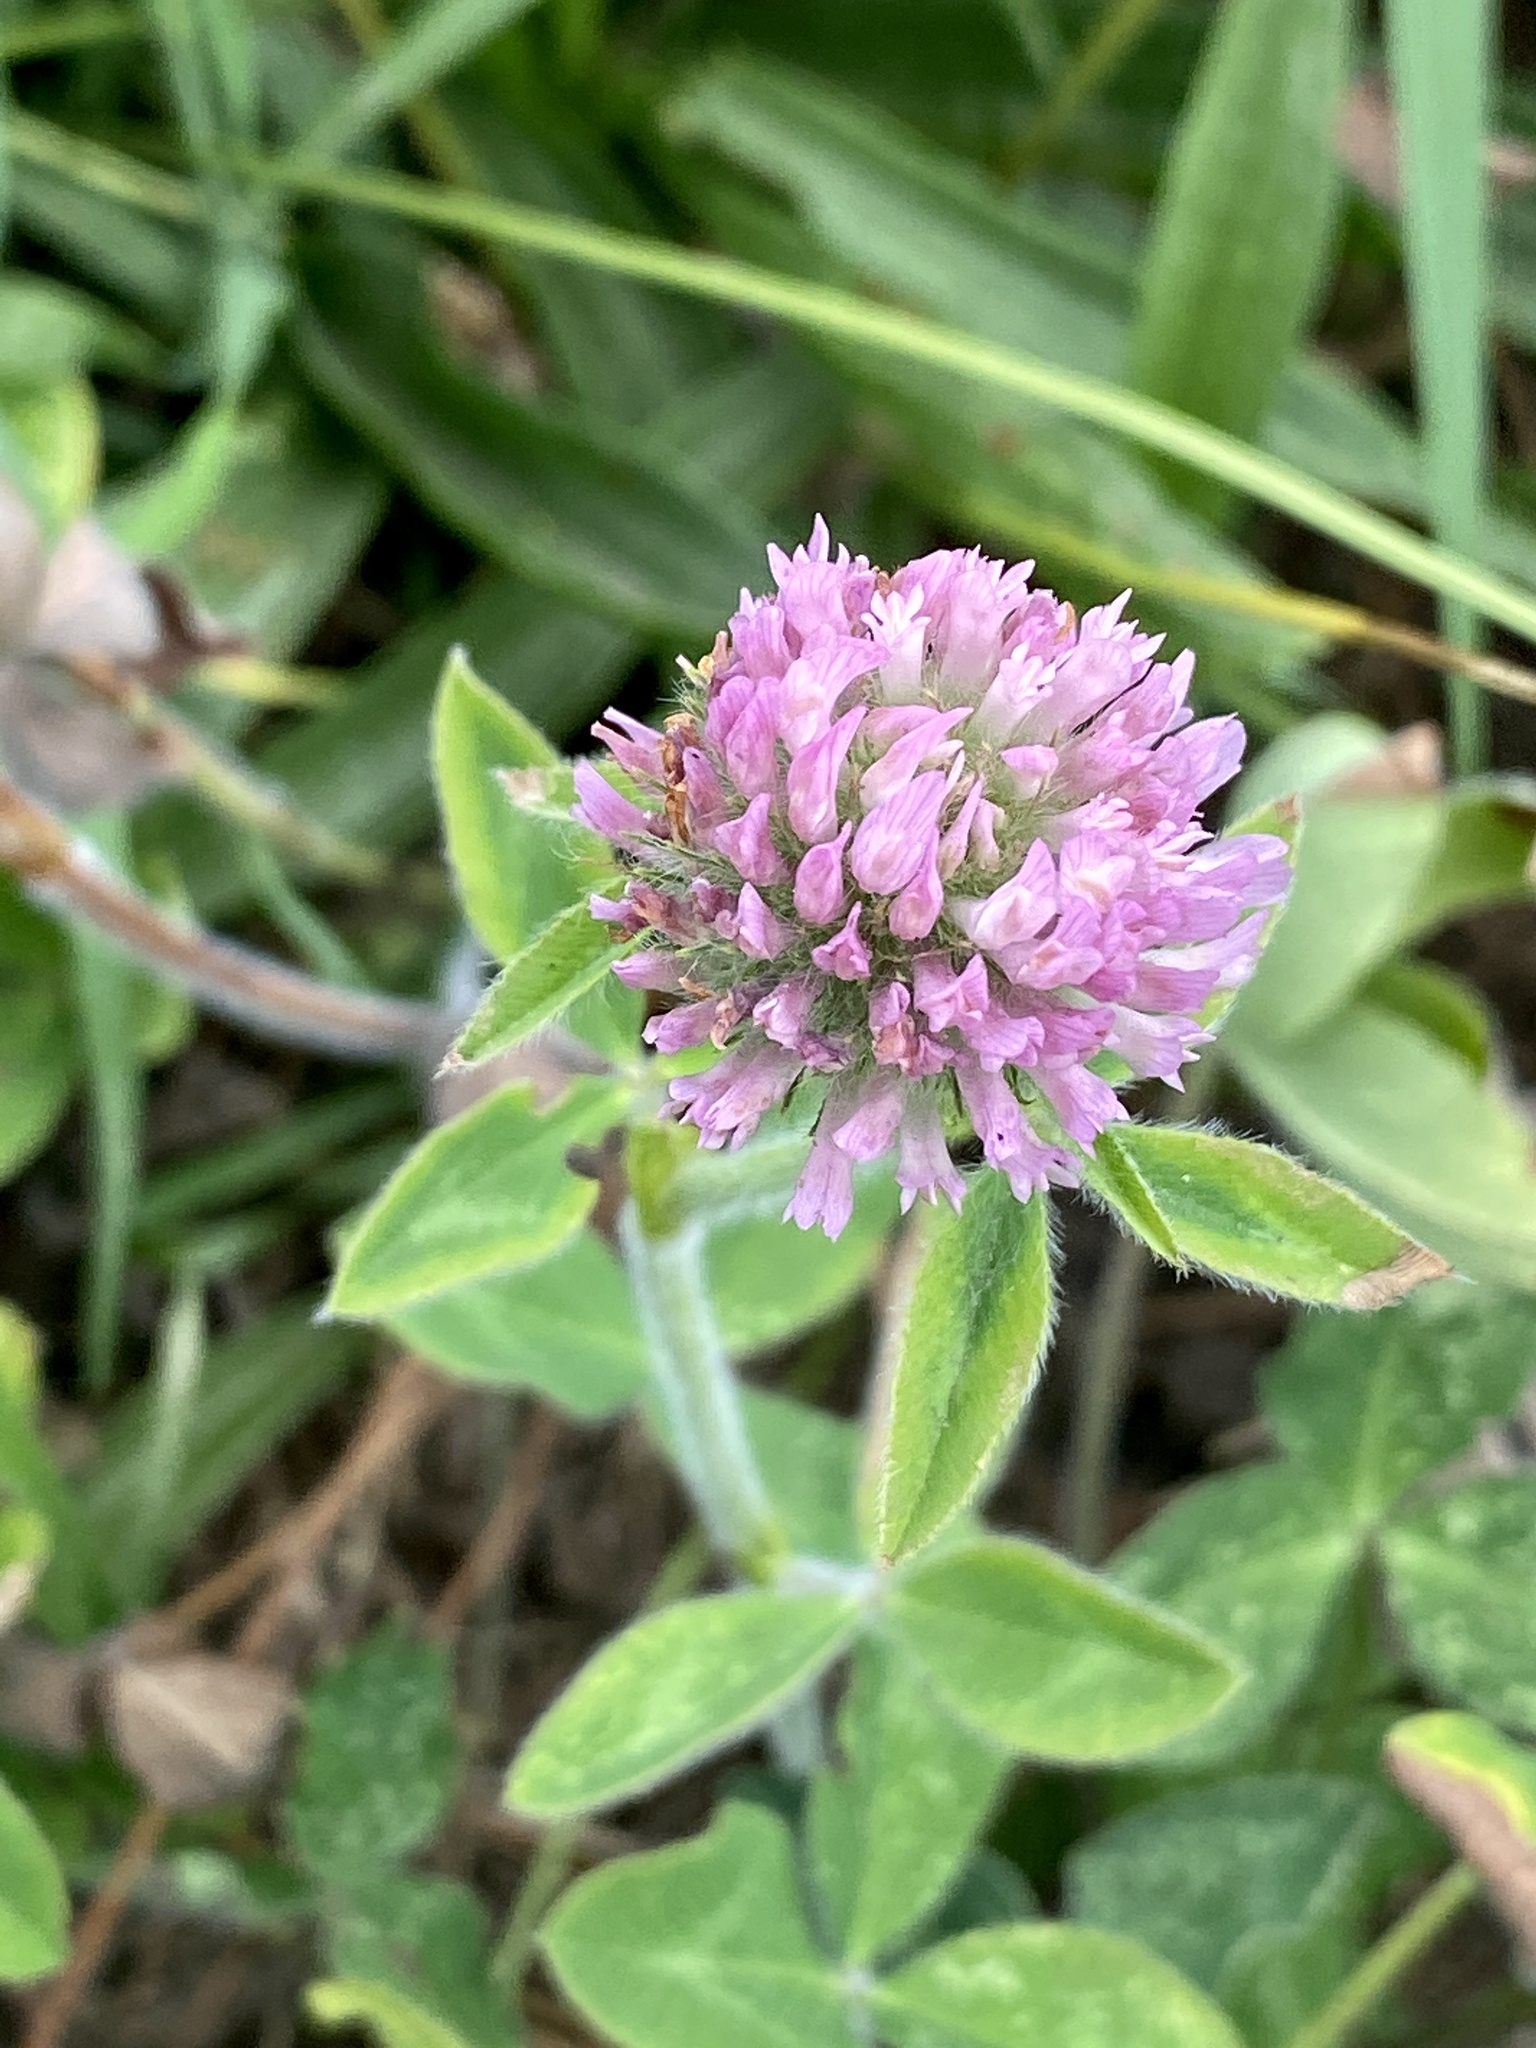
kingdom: Plantae
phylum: Tracheophyta
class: Magnoliopsida
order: Fabales
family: Fabaceae
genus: Trifolium
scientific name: Trifolium pratense
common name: Red clover
